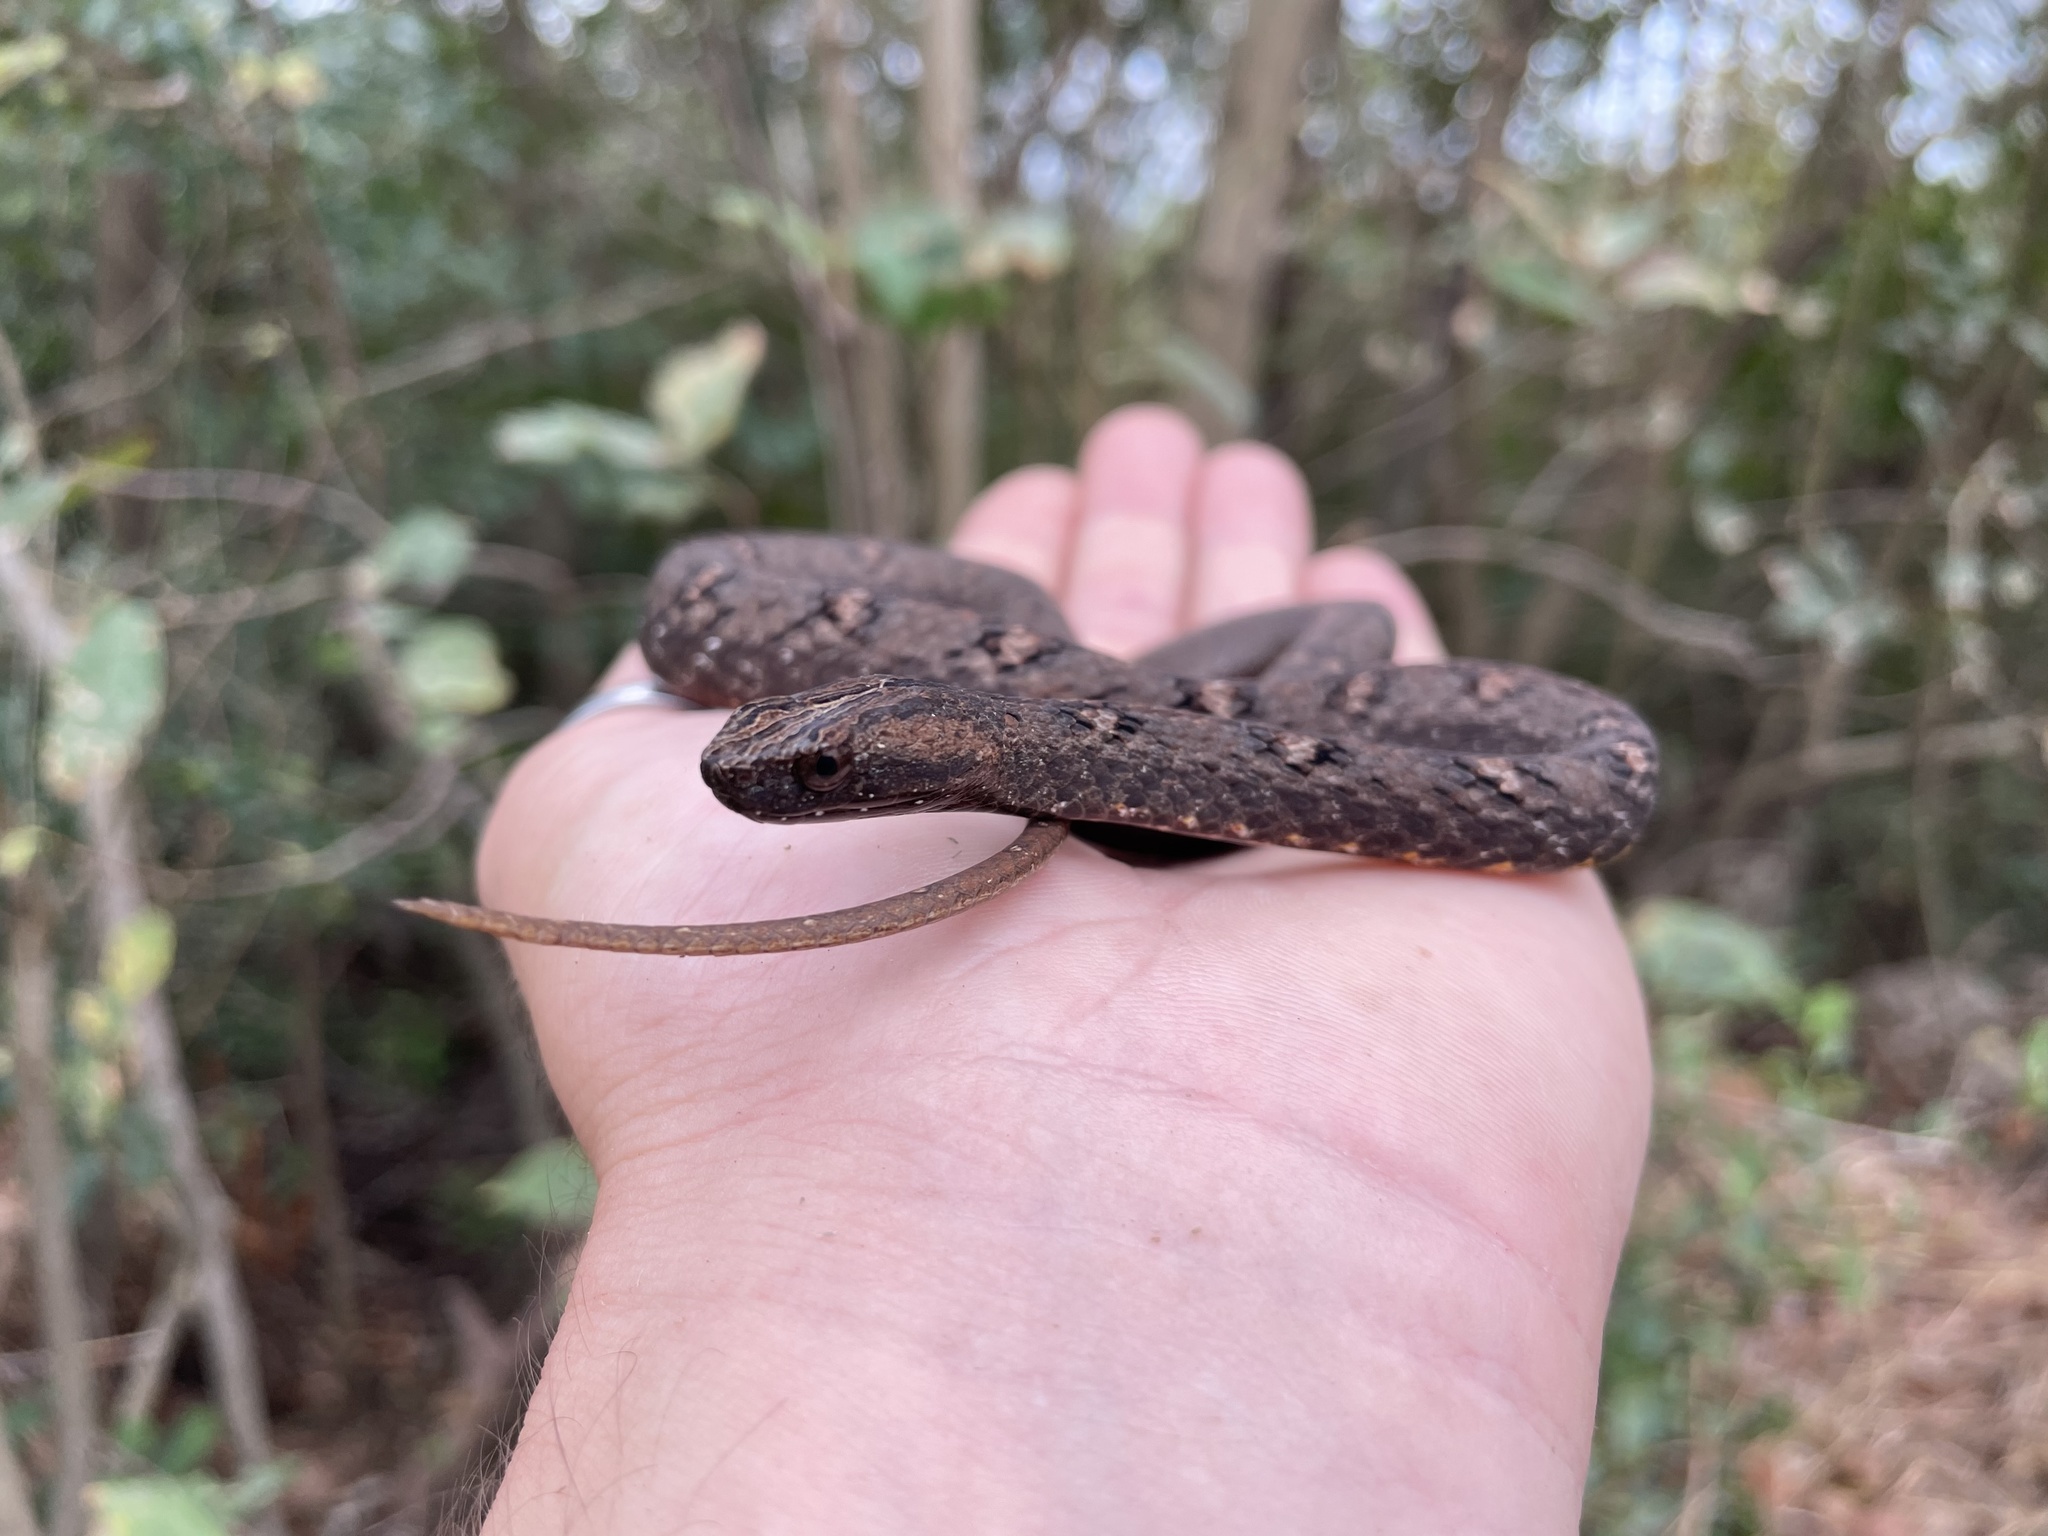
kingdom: Animalia
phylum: Chordata
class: Squamata
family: Pseudaspididae
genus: Psammodynastes
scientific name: Psammodynastes pulverulentus
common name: Common mock viper
